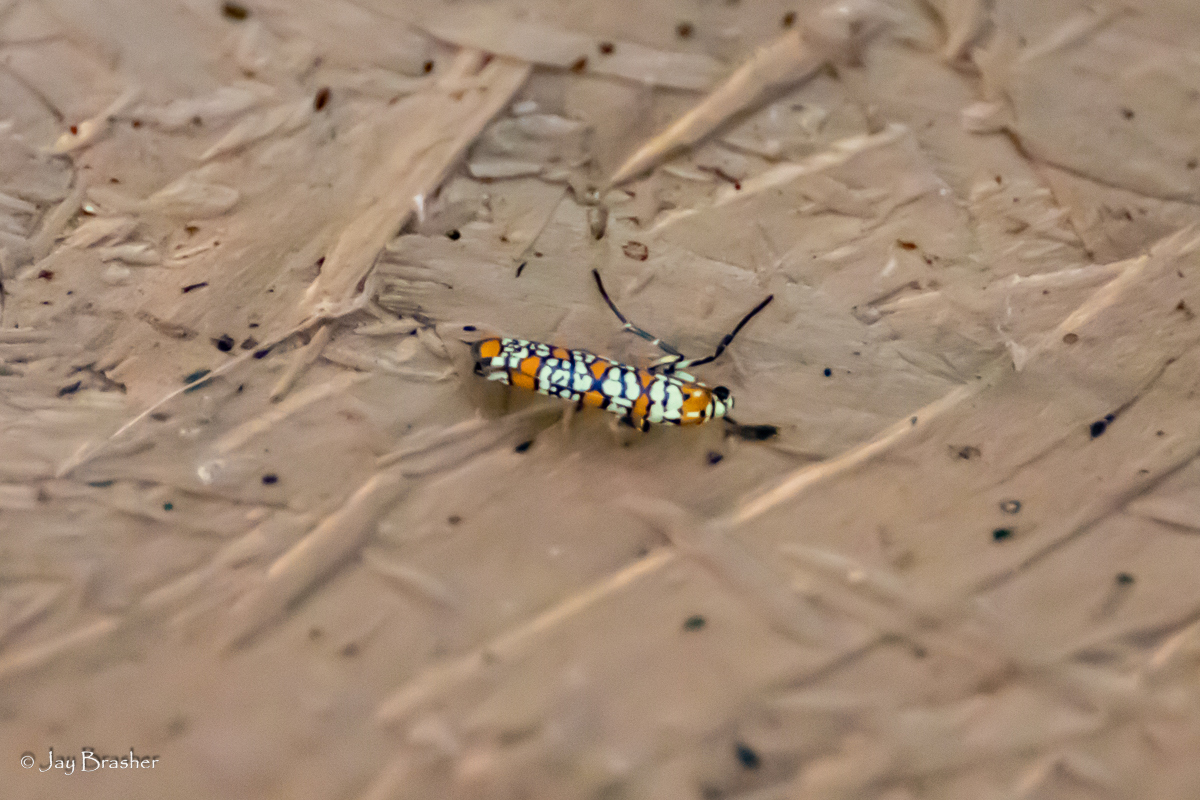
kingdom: Animalia
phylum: Arthropoda
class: Insecta
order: Lepidoptera
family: Attevidae
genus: Atteva
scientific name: Atteva punctella
